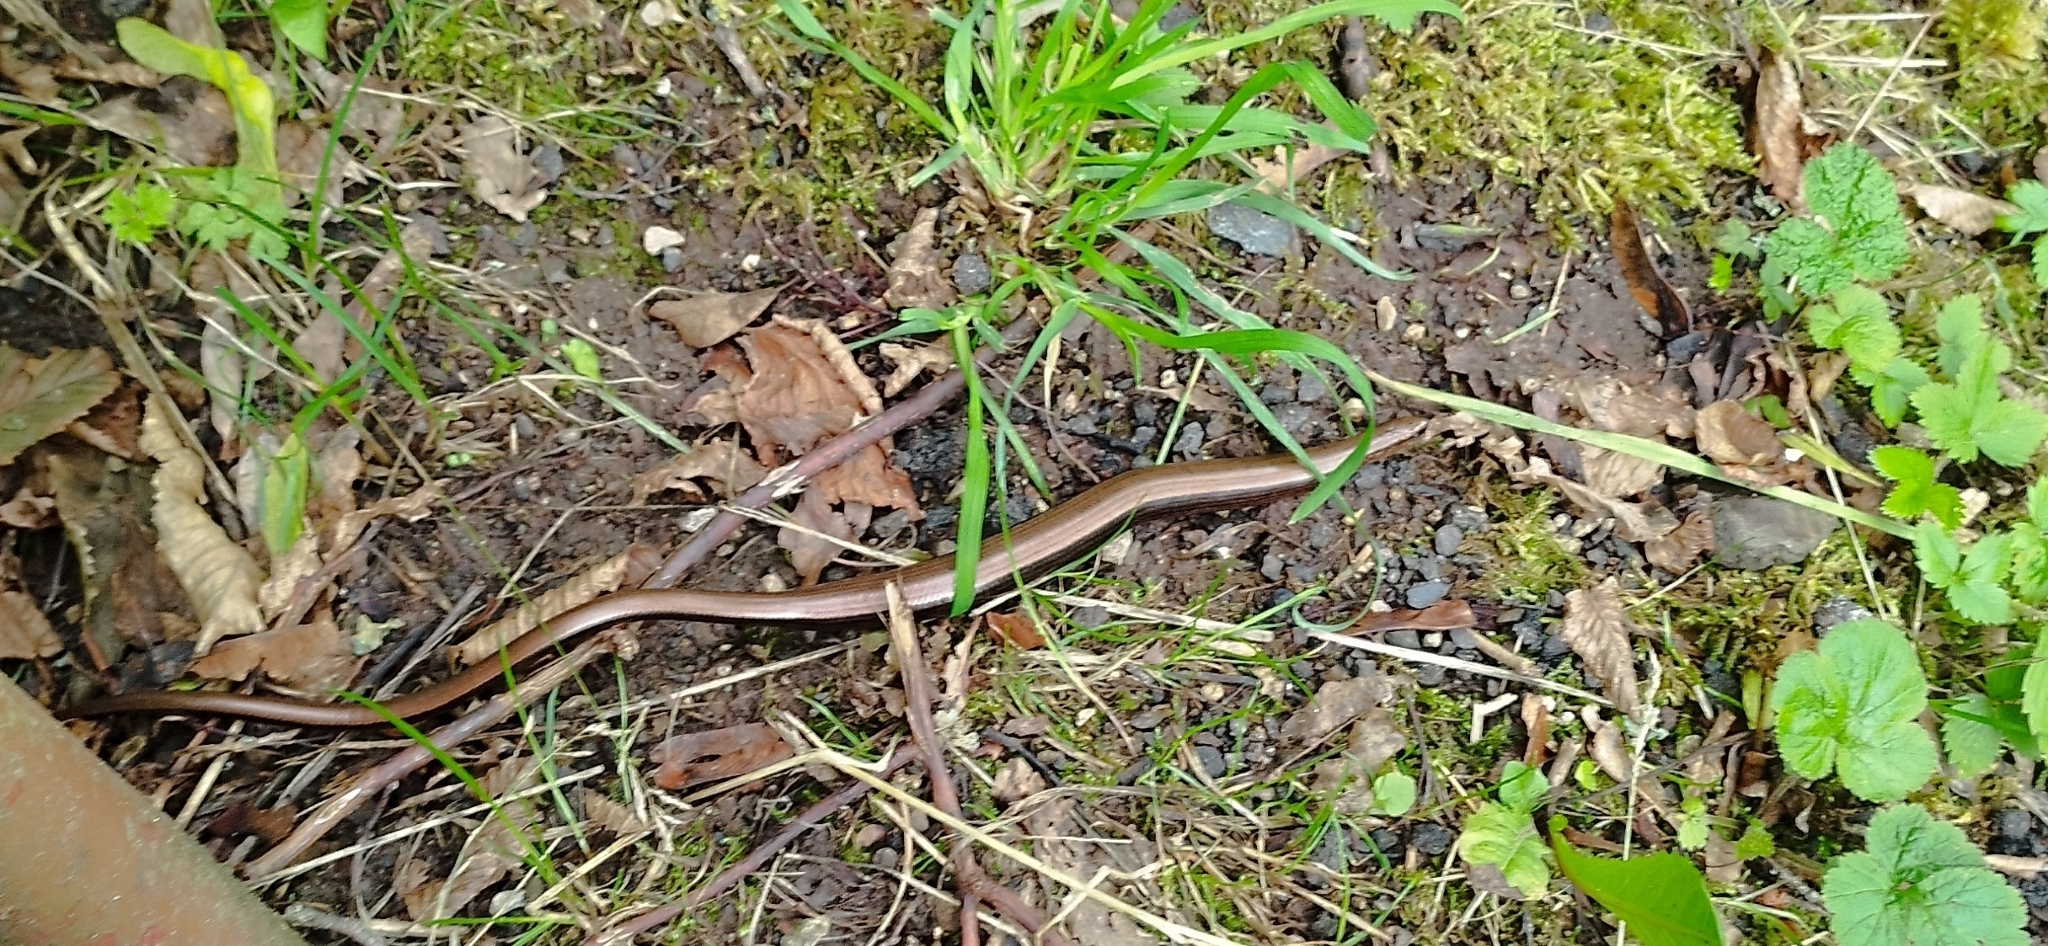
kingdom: Animalia
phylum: Chordata
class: Squamata
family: Anguidae
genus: Anguis
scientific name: Anguis fragilis
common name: Slow worm
